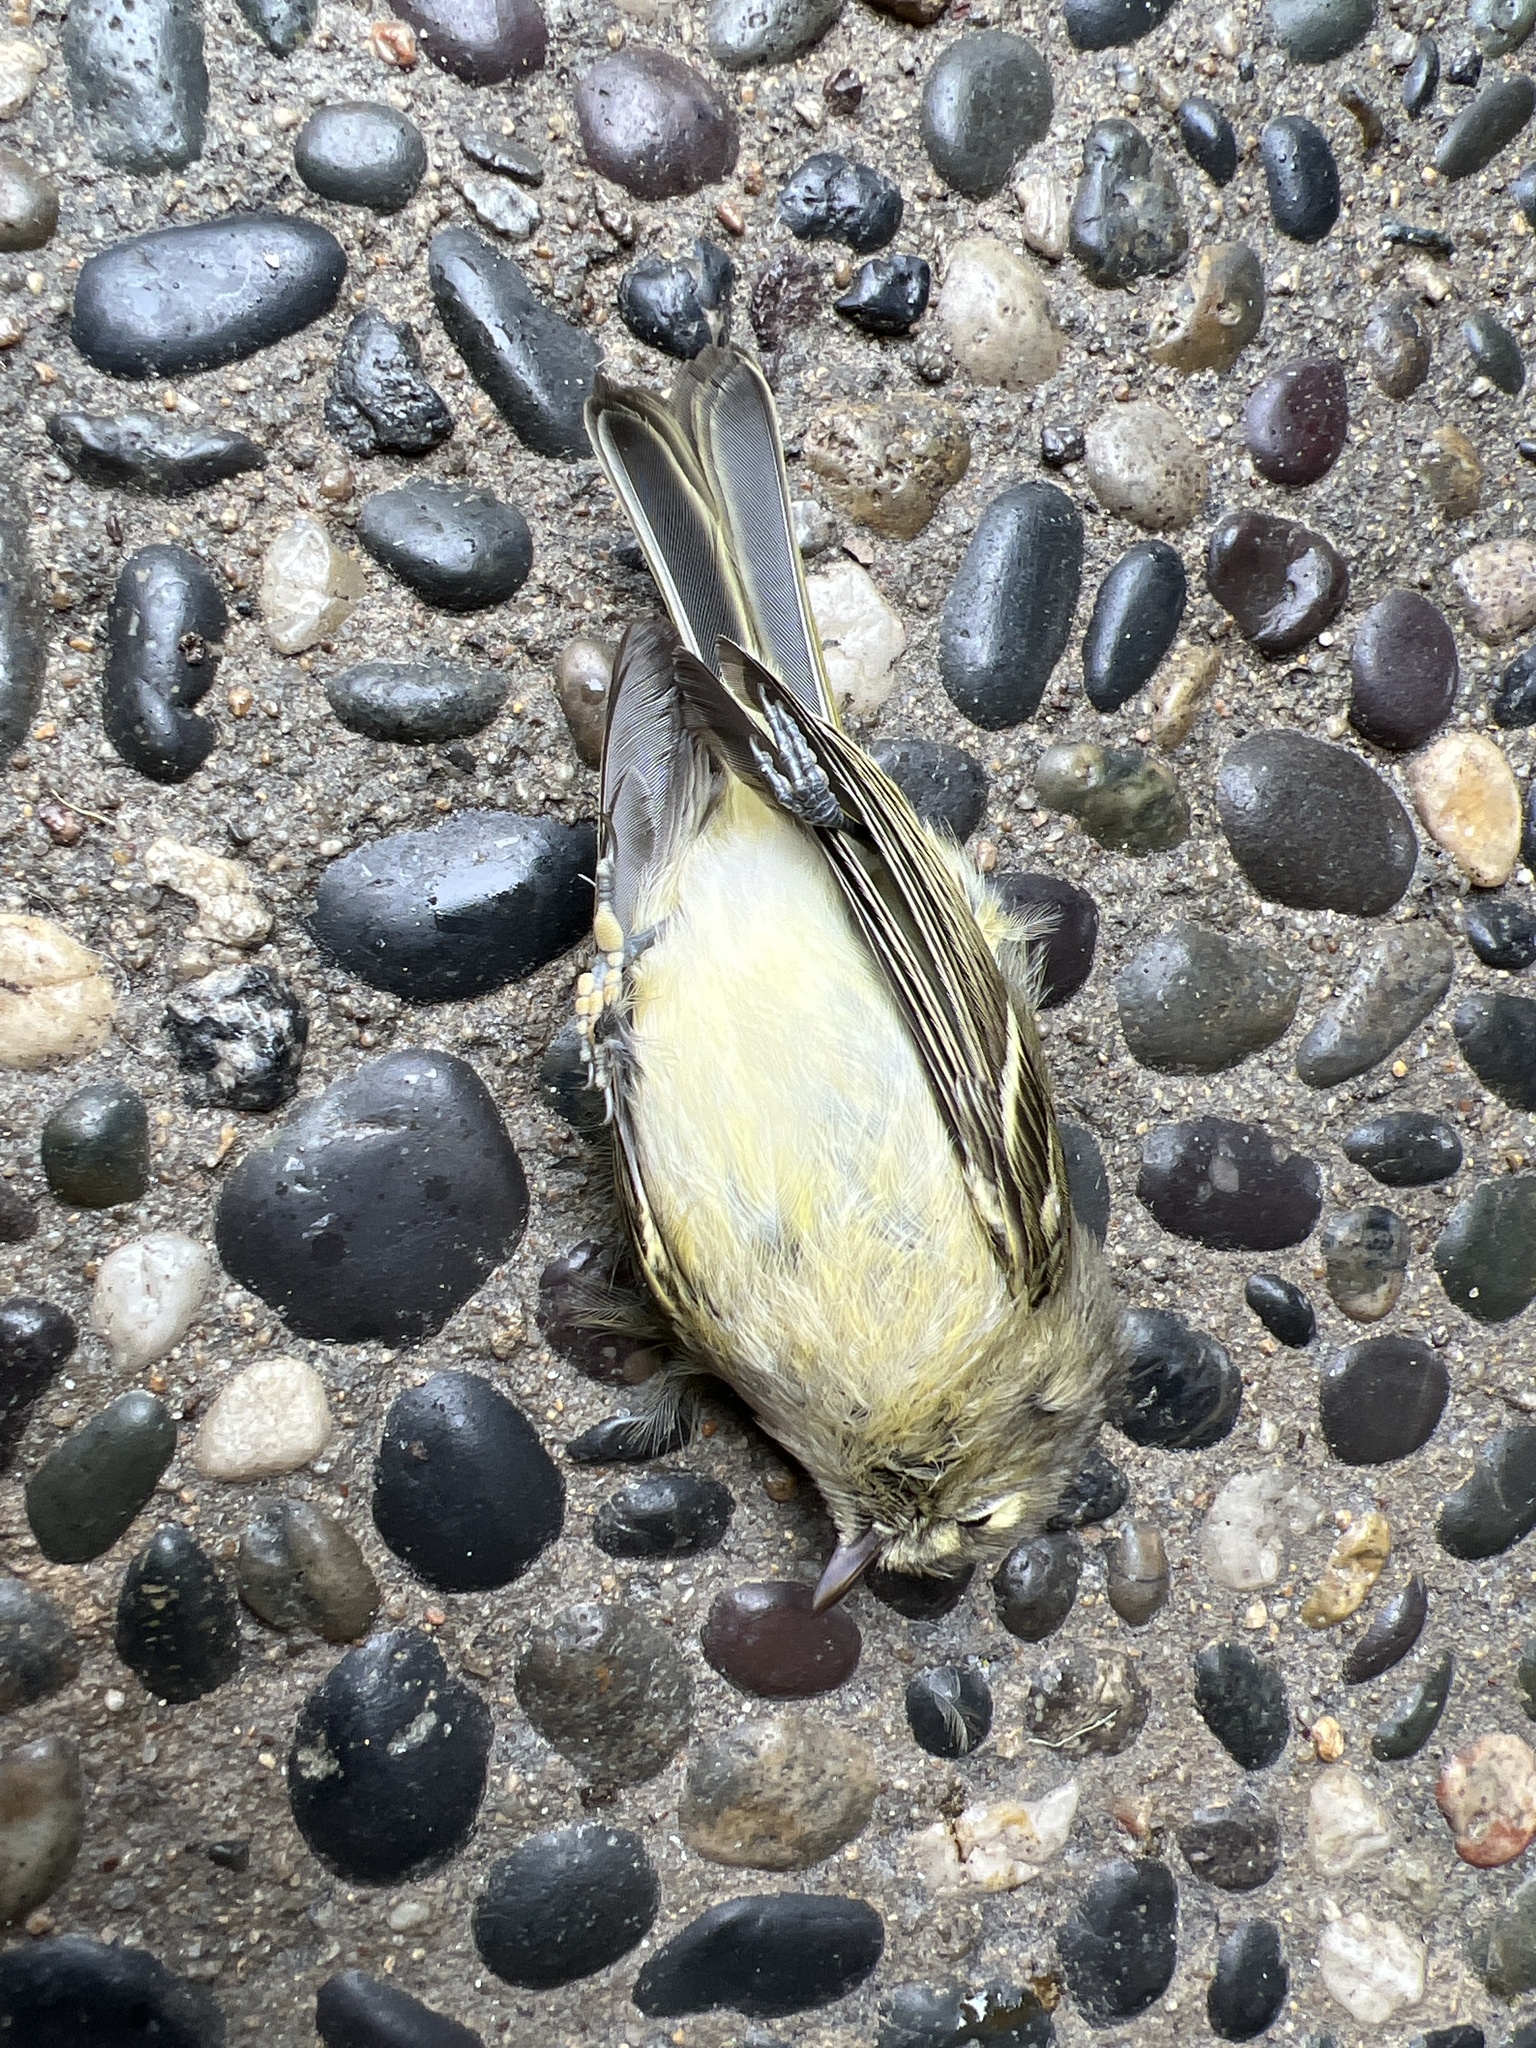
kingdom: Animalia
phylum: Chordata
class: Aves
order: Passeriformes
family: Vireonidae
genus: Vireo
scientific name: Vireo huttoni
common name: Hutton's vireo
